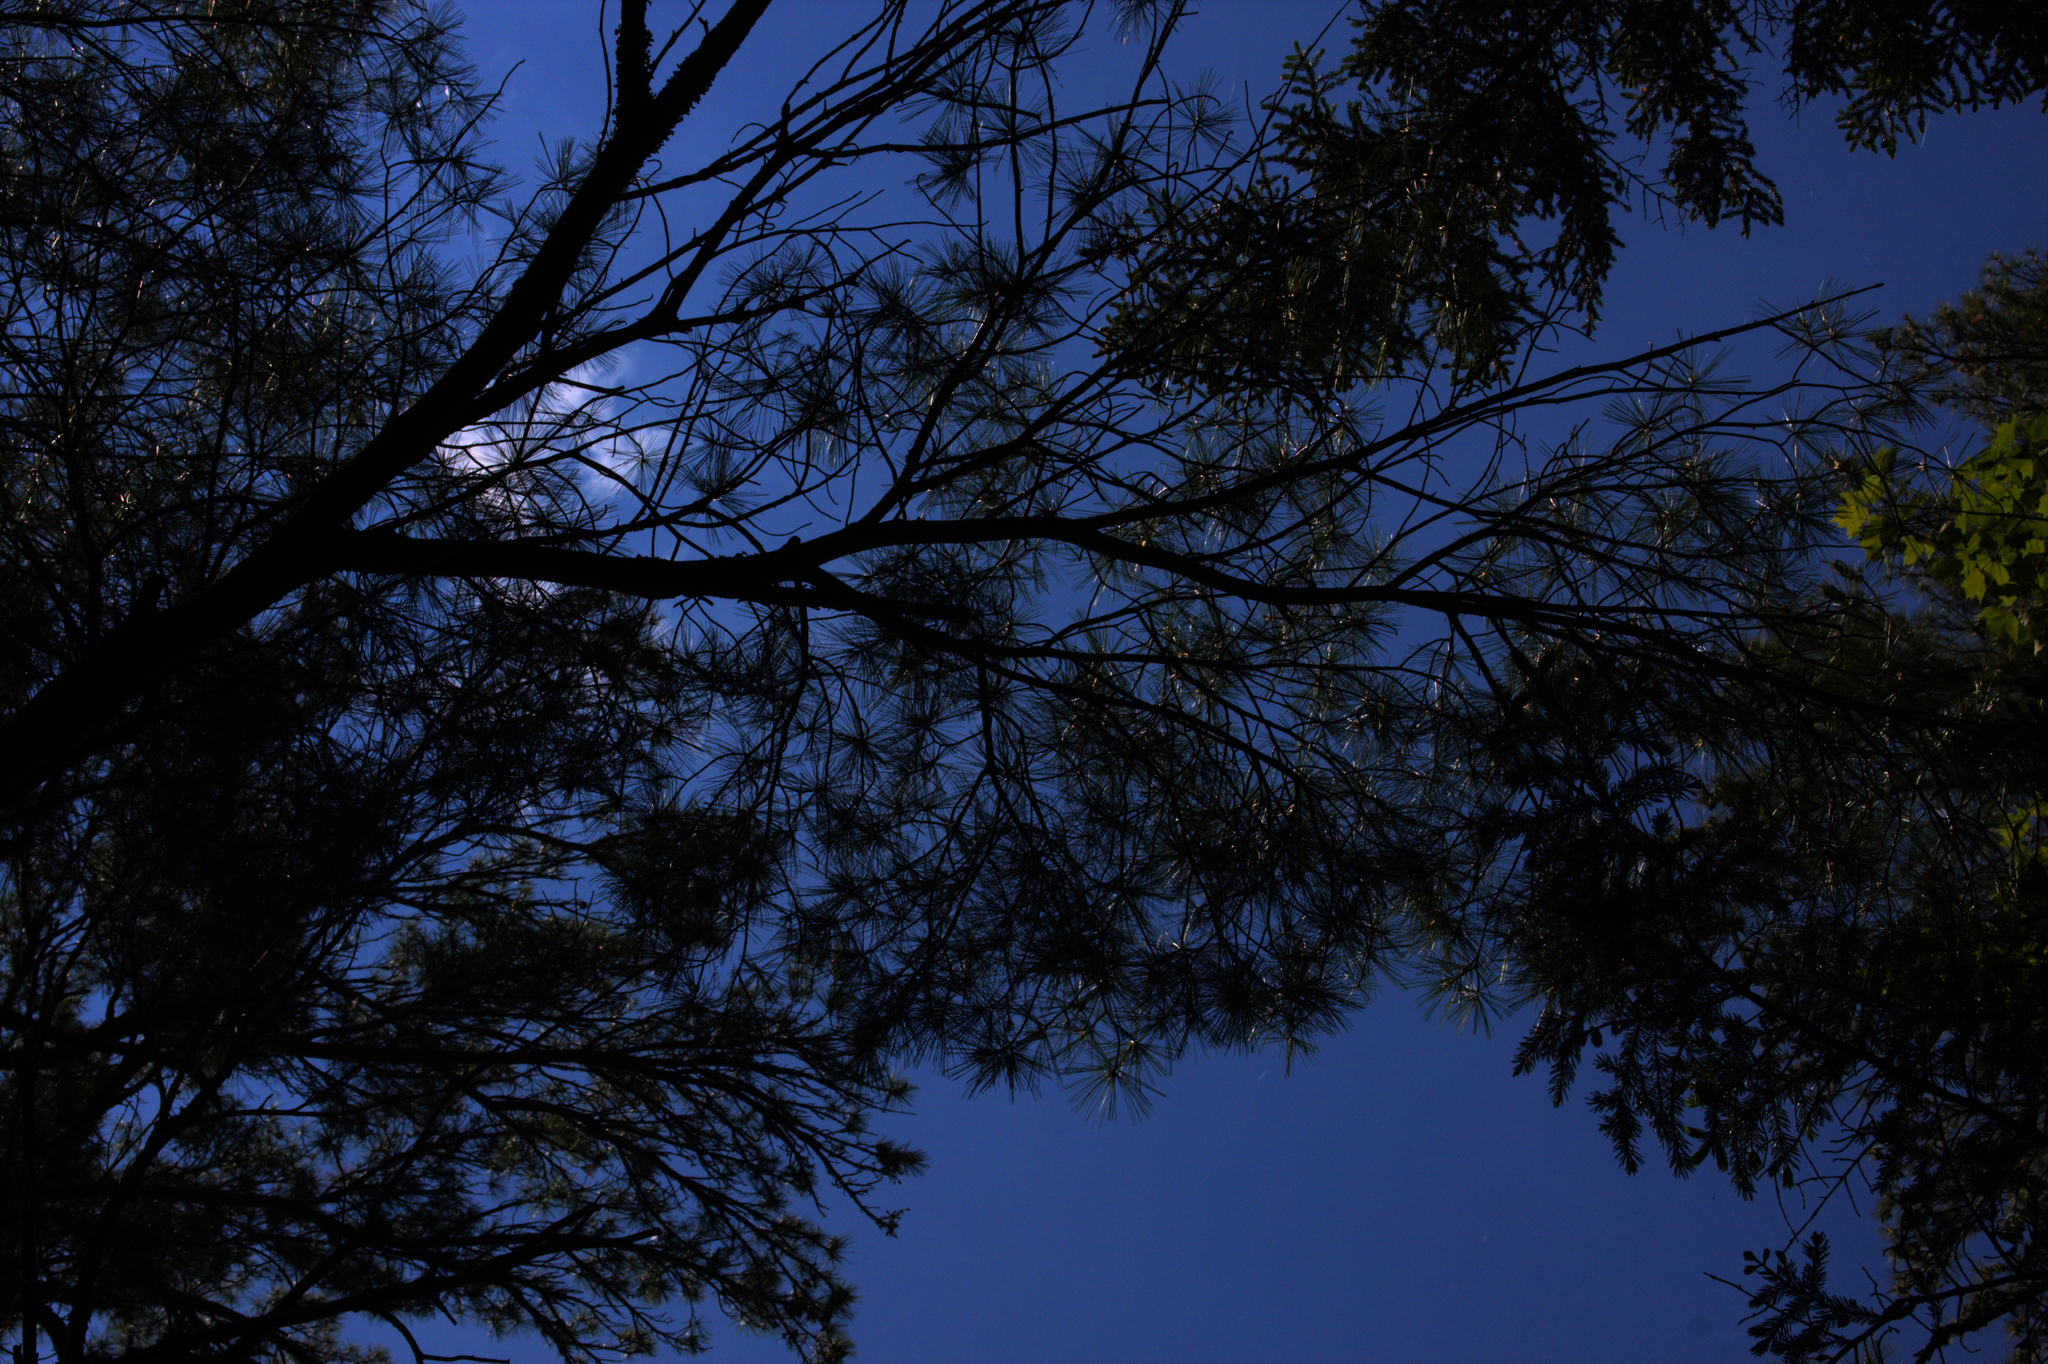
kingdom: Plantae
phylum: Tracheophyta
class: Pinopsida
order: Pinales
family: Pinaceae
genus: Pinus
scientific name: Pinus strobus
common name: Weymouth pine
